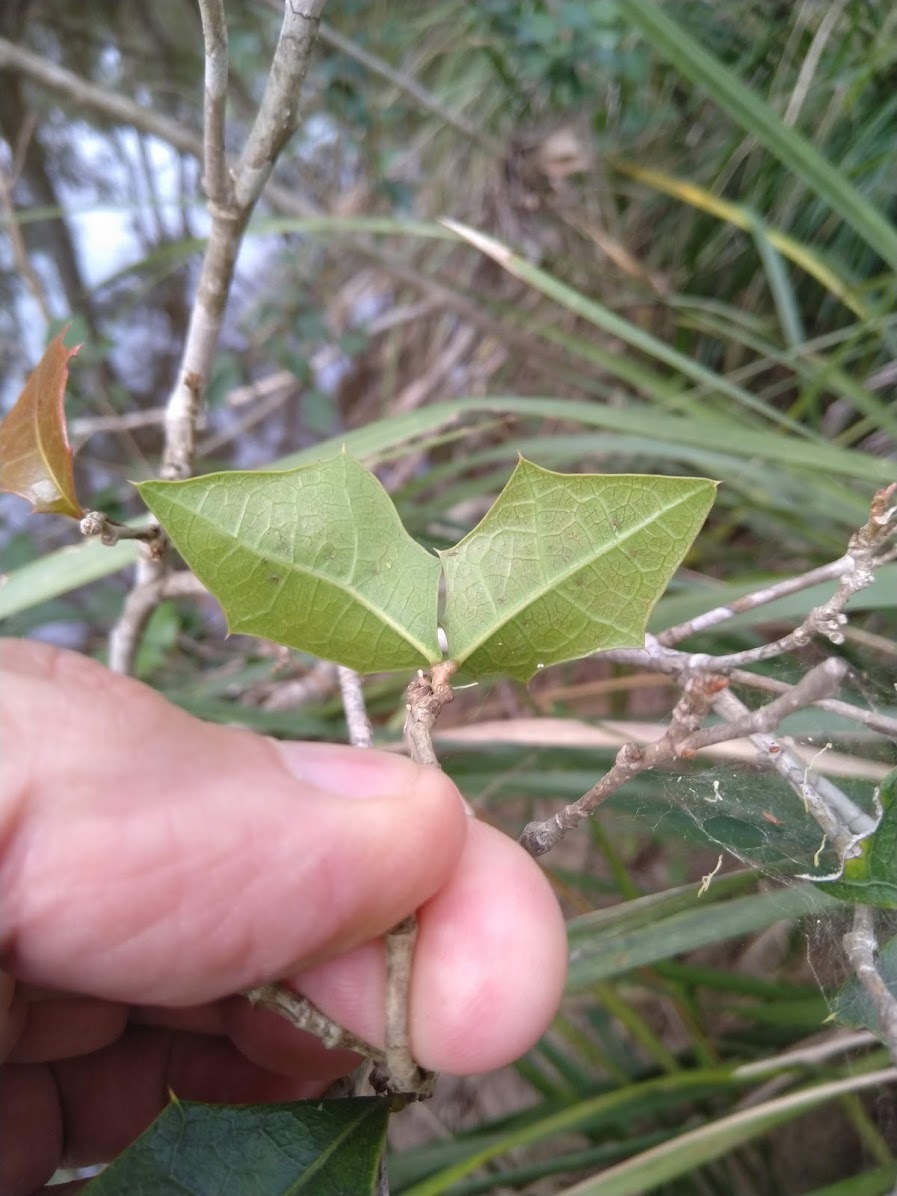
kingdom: Plantae
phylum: Tracheophyta
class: Magnoliopsida
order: Malpighiales
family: Euphorbiaceae
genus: Alchornea
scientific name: Alchornea ilicifolia
